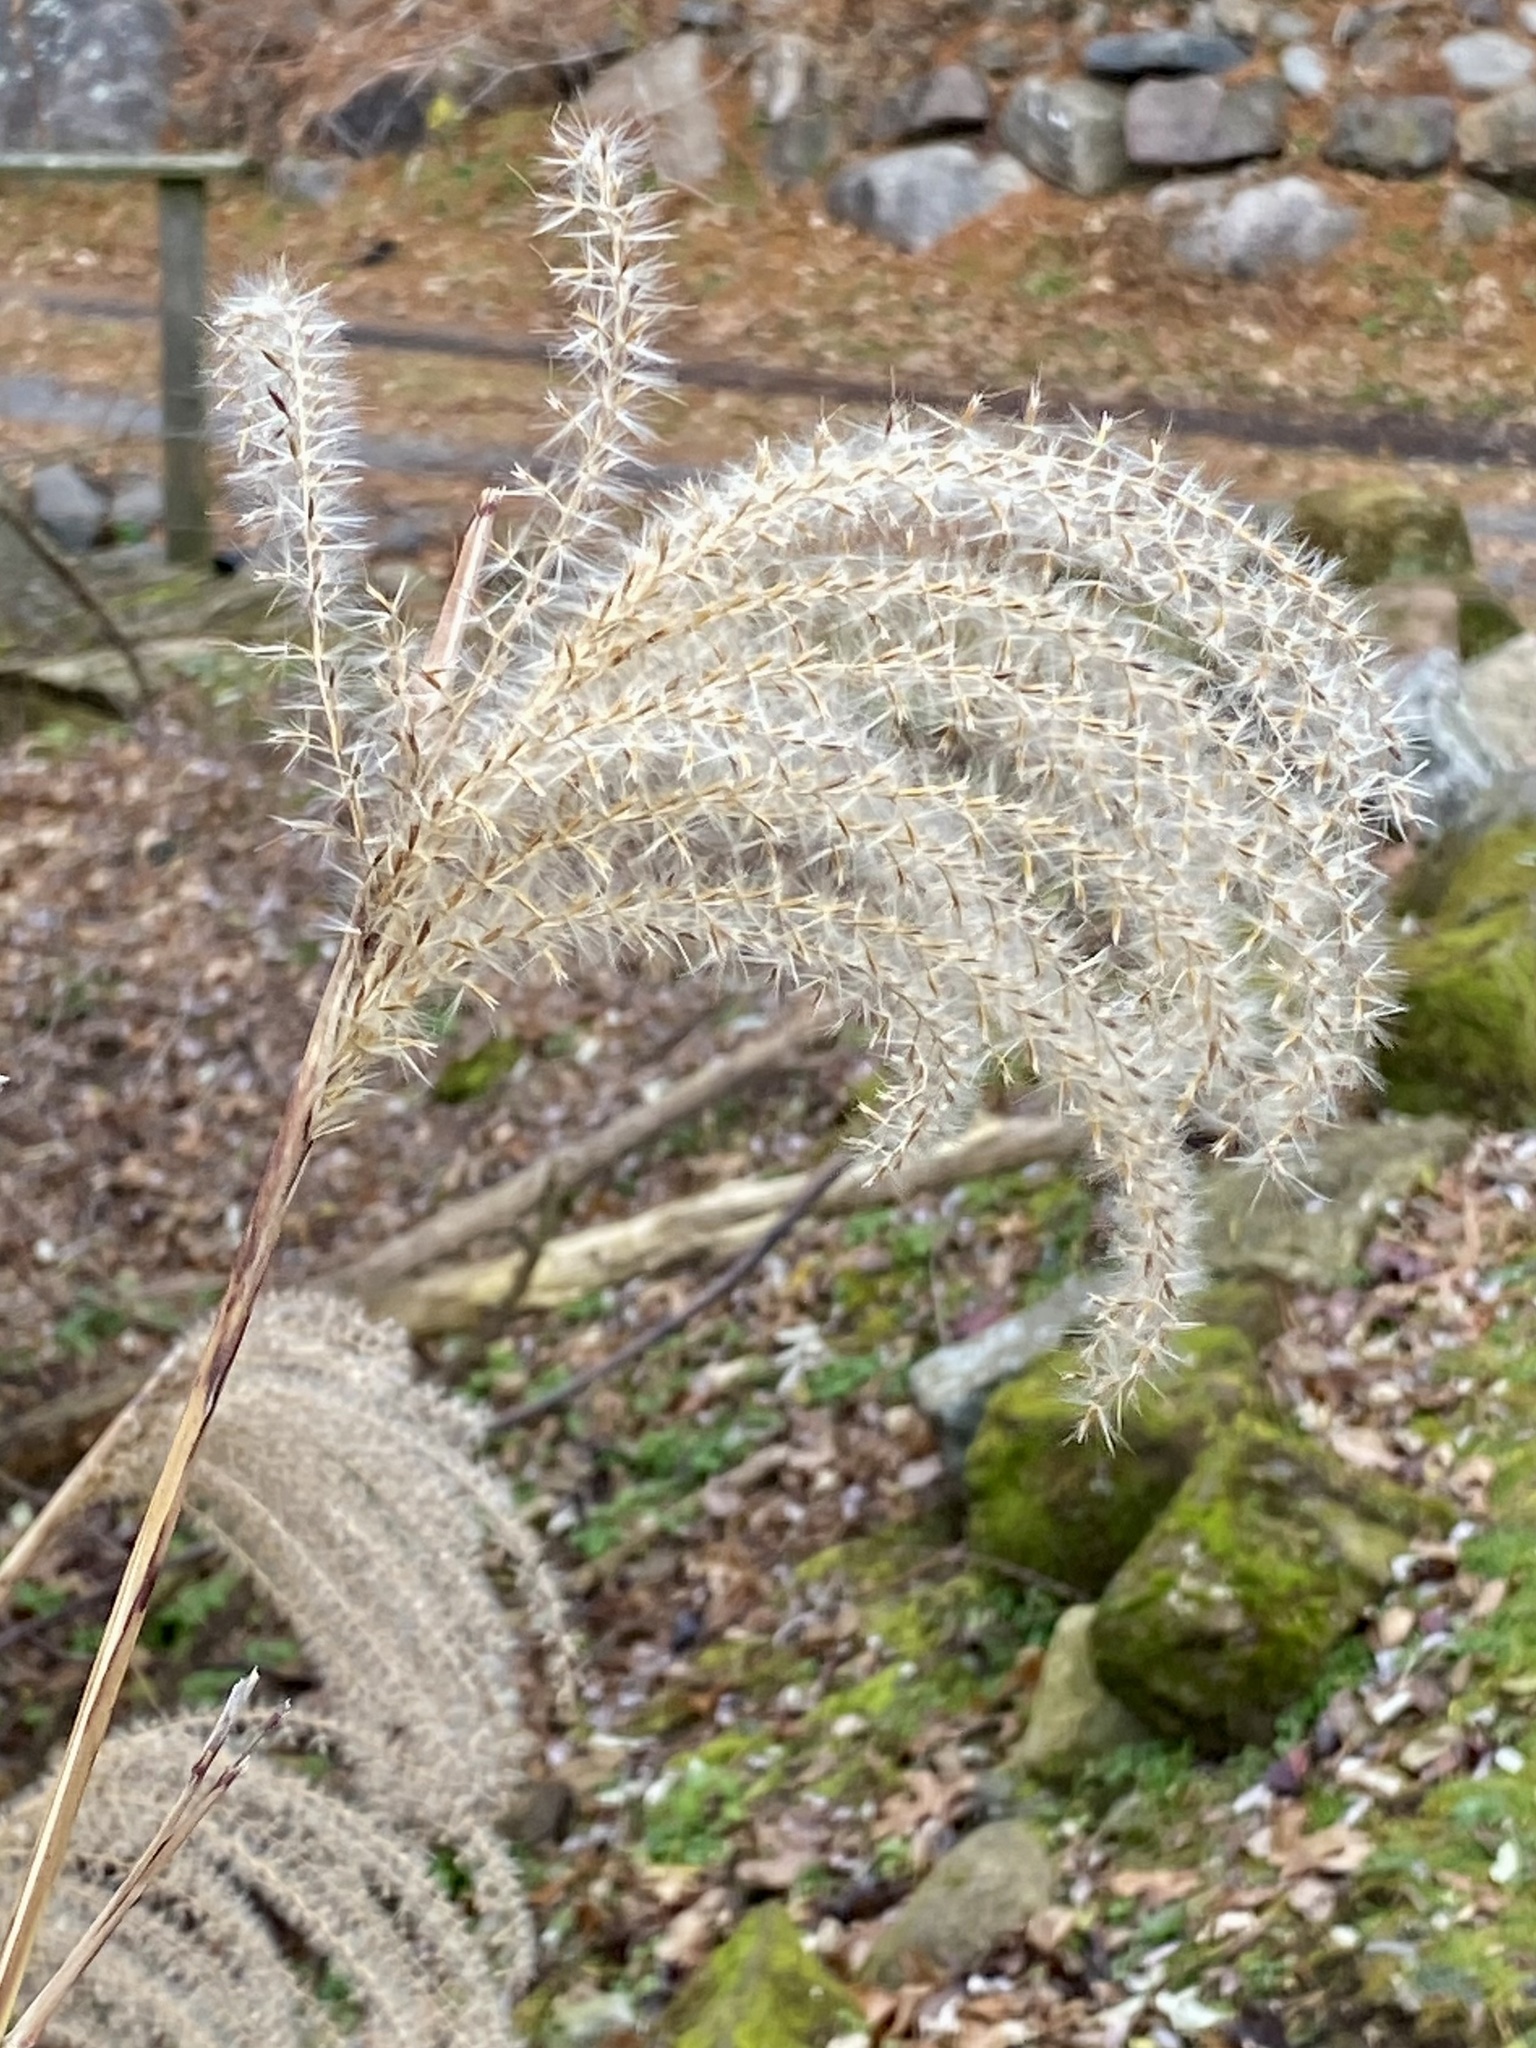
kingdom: Plantae
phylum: Tracheophyta
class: Liliopsida
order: Poales
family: Poaceae
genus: Miscanthus
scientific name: Miscanthus sinensis
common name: Chinese silvergrass
